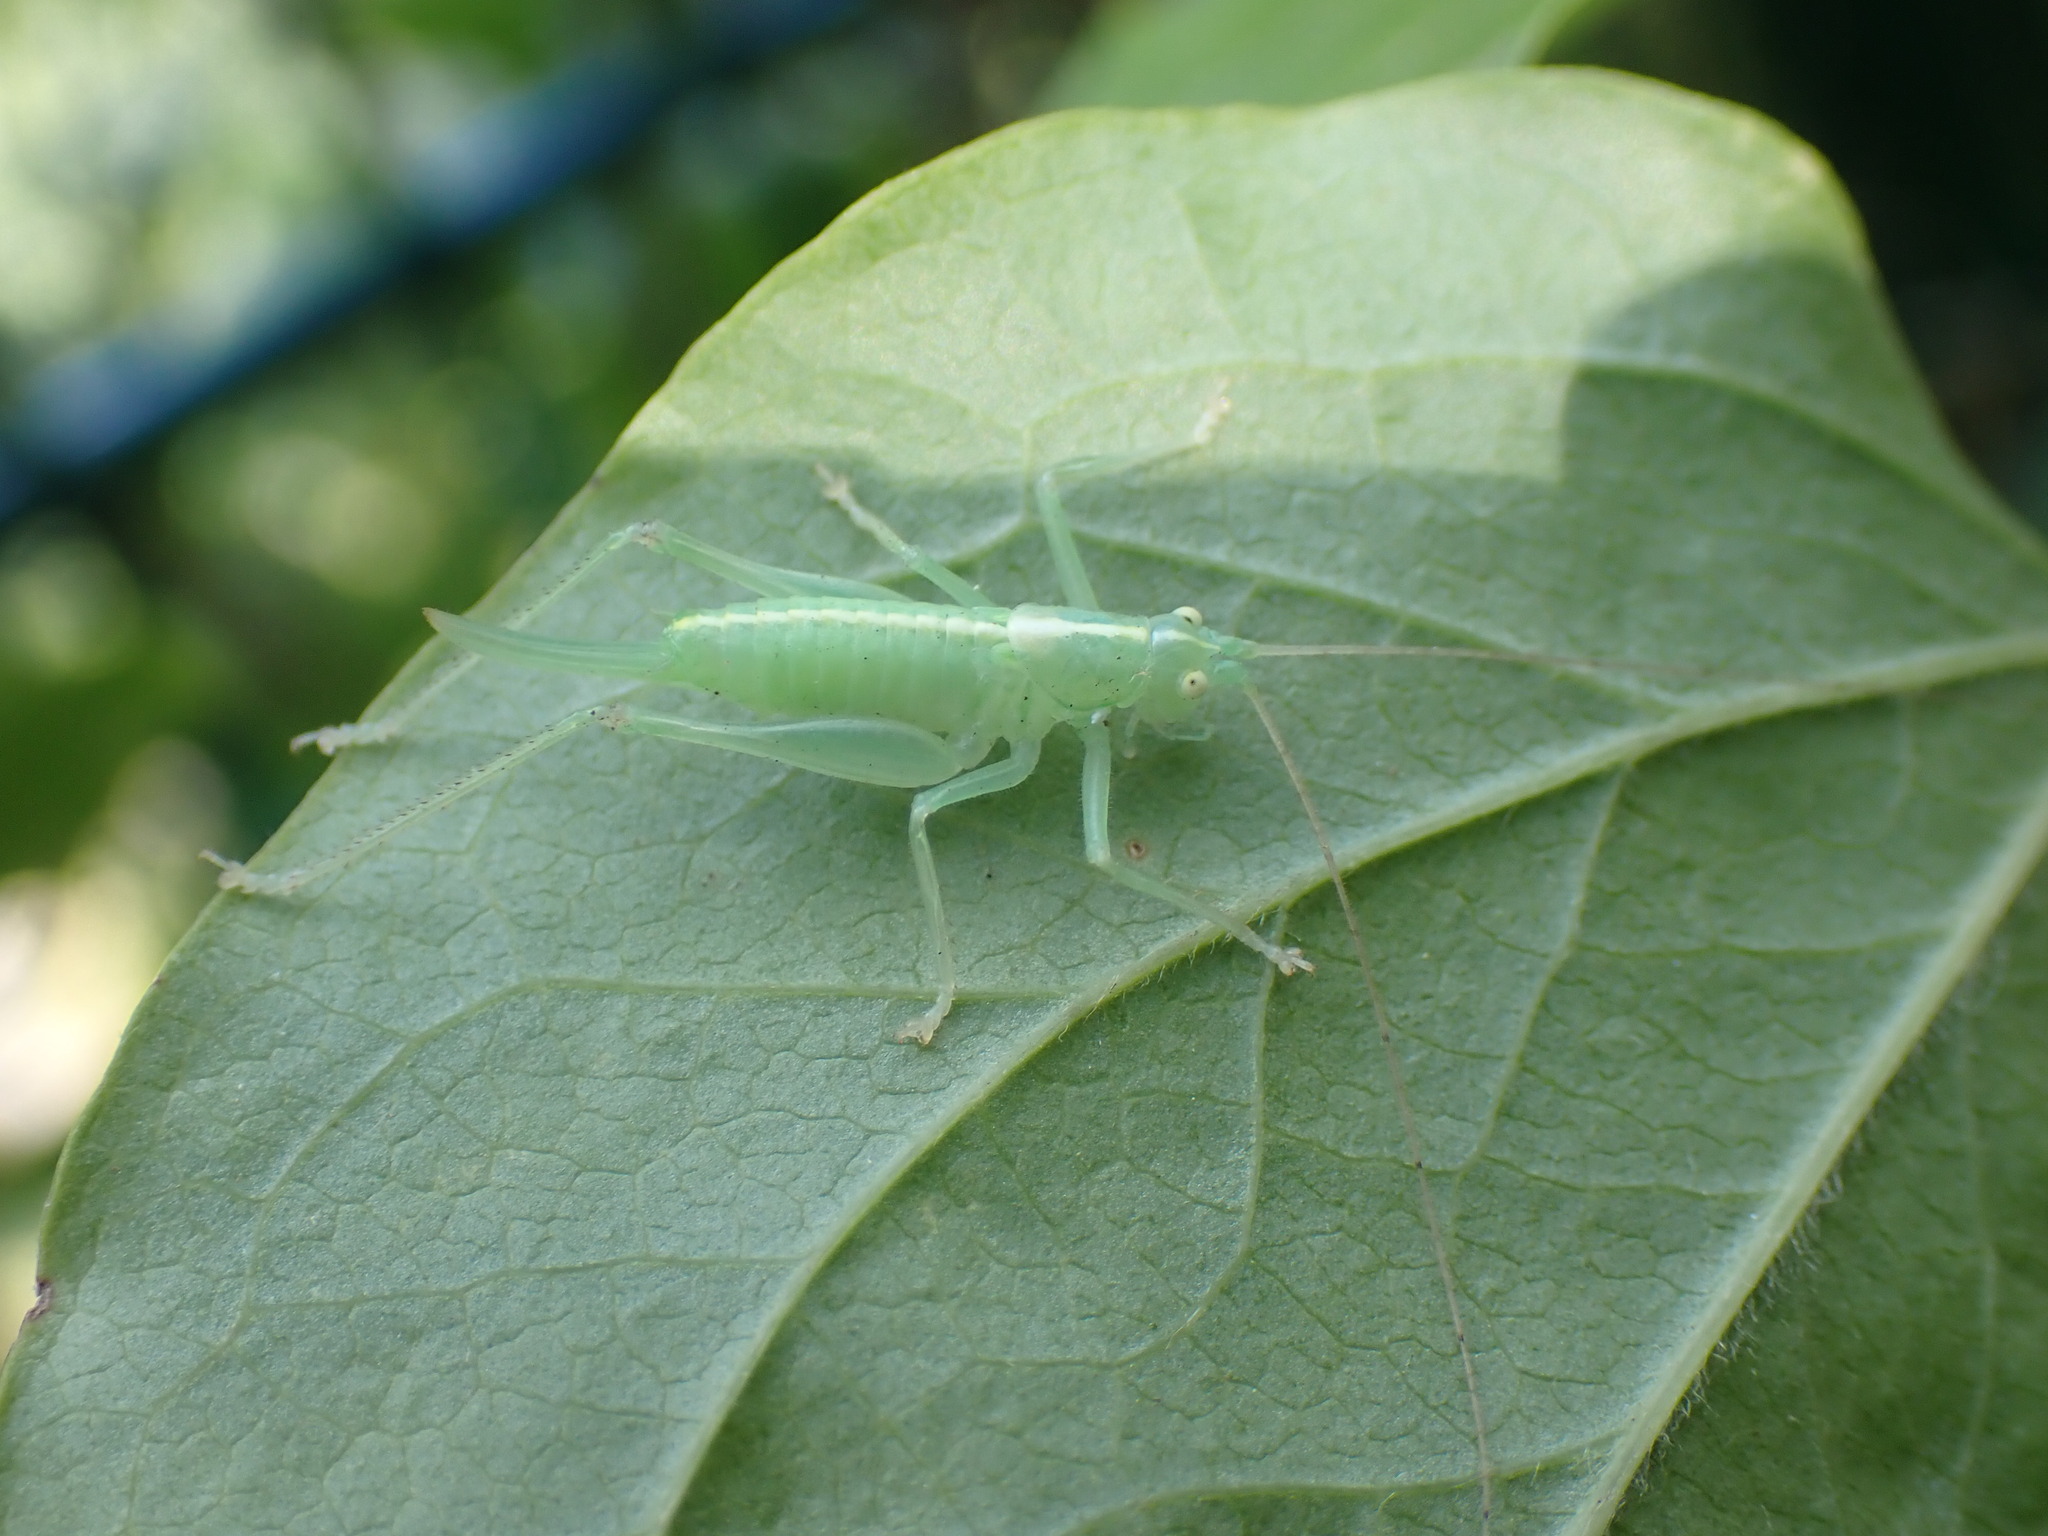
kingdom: Animalia
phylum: Arthropoda
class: Insecta
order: Orthoptera
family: Tettigoniidae
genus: Meconema
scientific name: Meconema meridionale
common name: Southern oak bush-cricket
